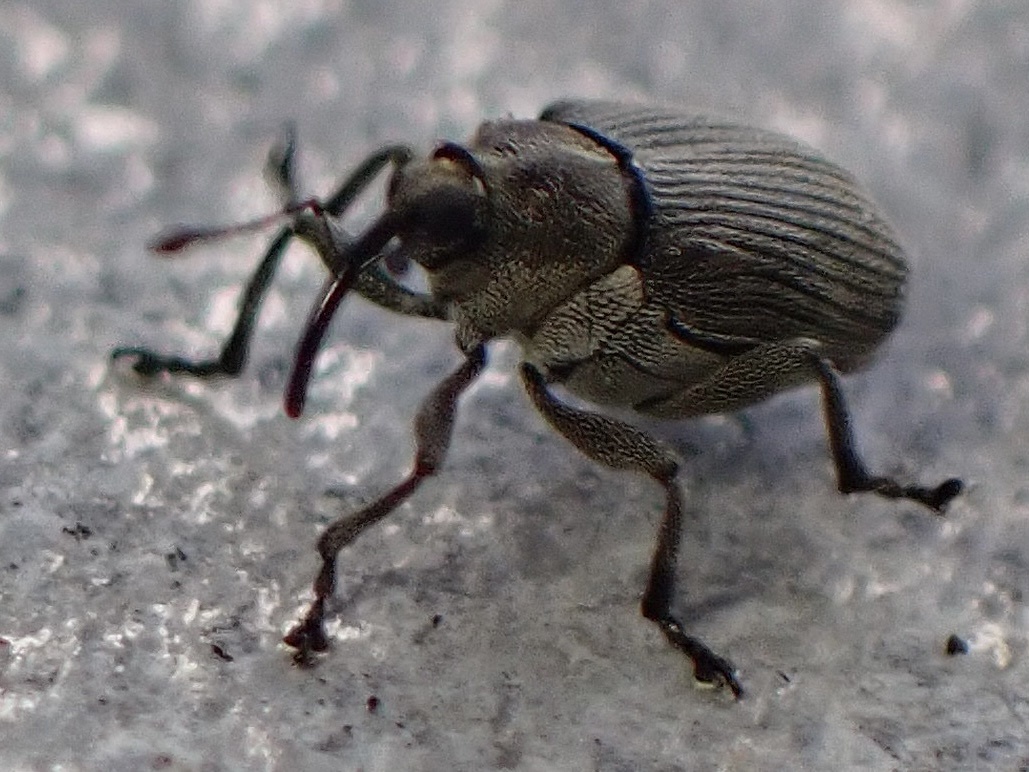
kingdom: Animalia
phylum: Arthropoda
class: Insecta
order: Coleoptera
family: Curculionidae
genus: Ceutorhynchus
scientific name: Ceutorhynchus obstrictus
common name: Cabbage seed weevil
